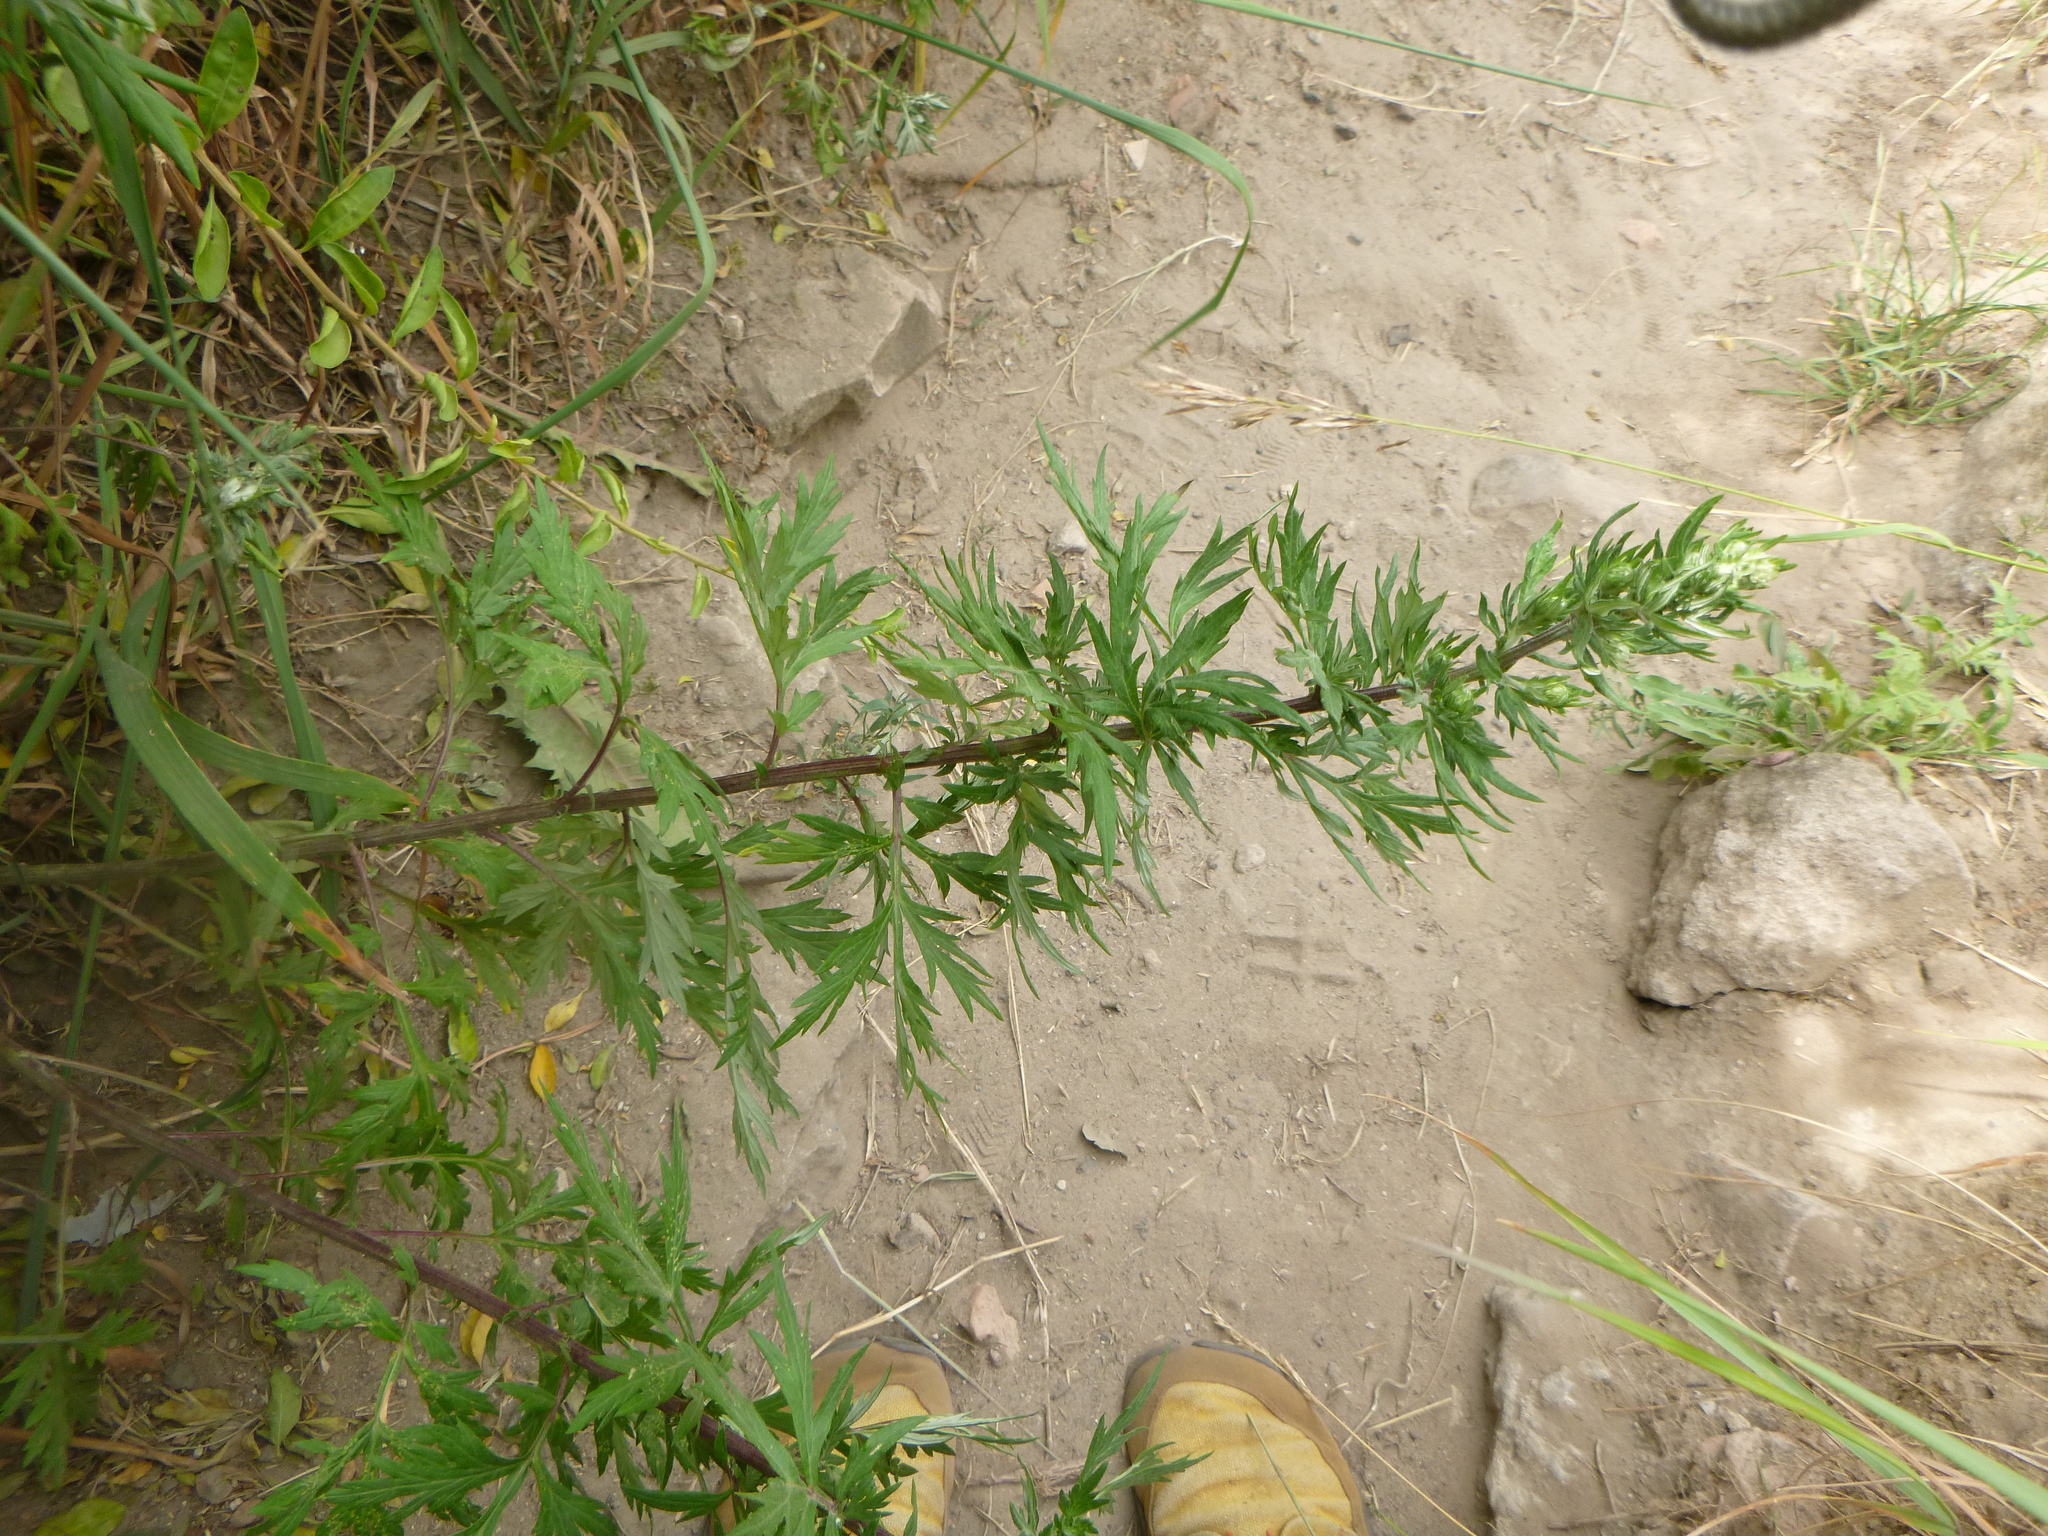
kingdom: Plantae
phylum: Tracheophyta
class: Magnoliopsida
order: Asterales
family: Asteraceae
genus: Artemisia
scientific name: Artemisia vulgaris
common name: Mugwort
